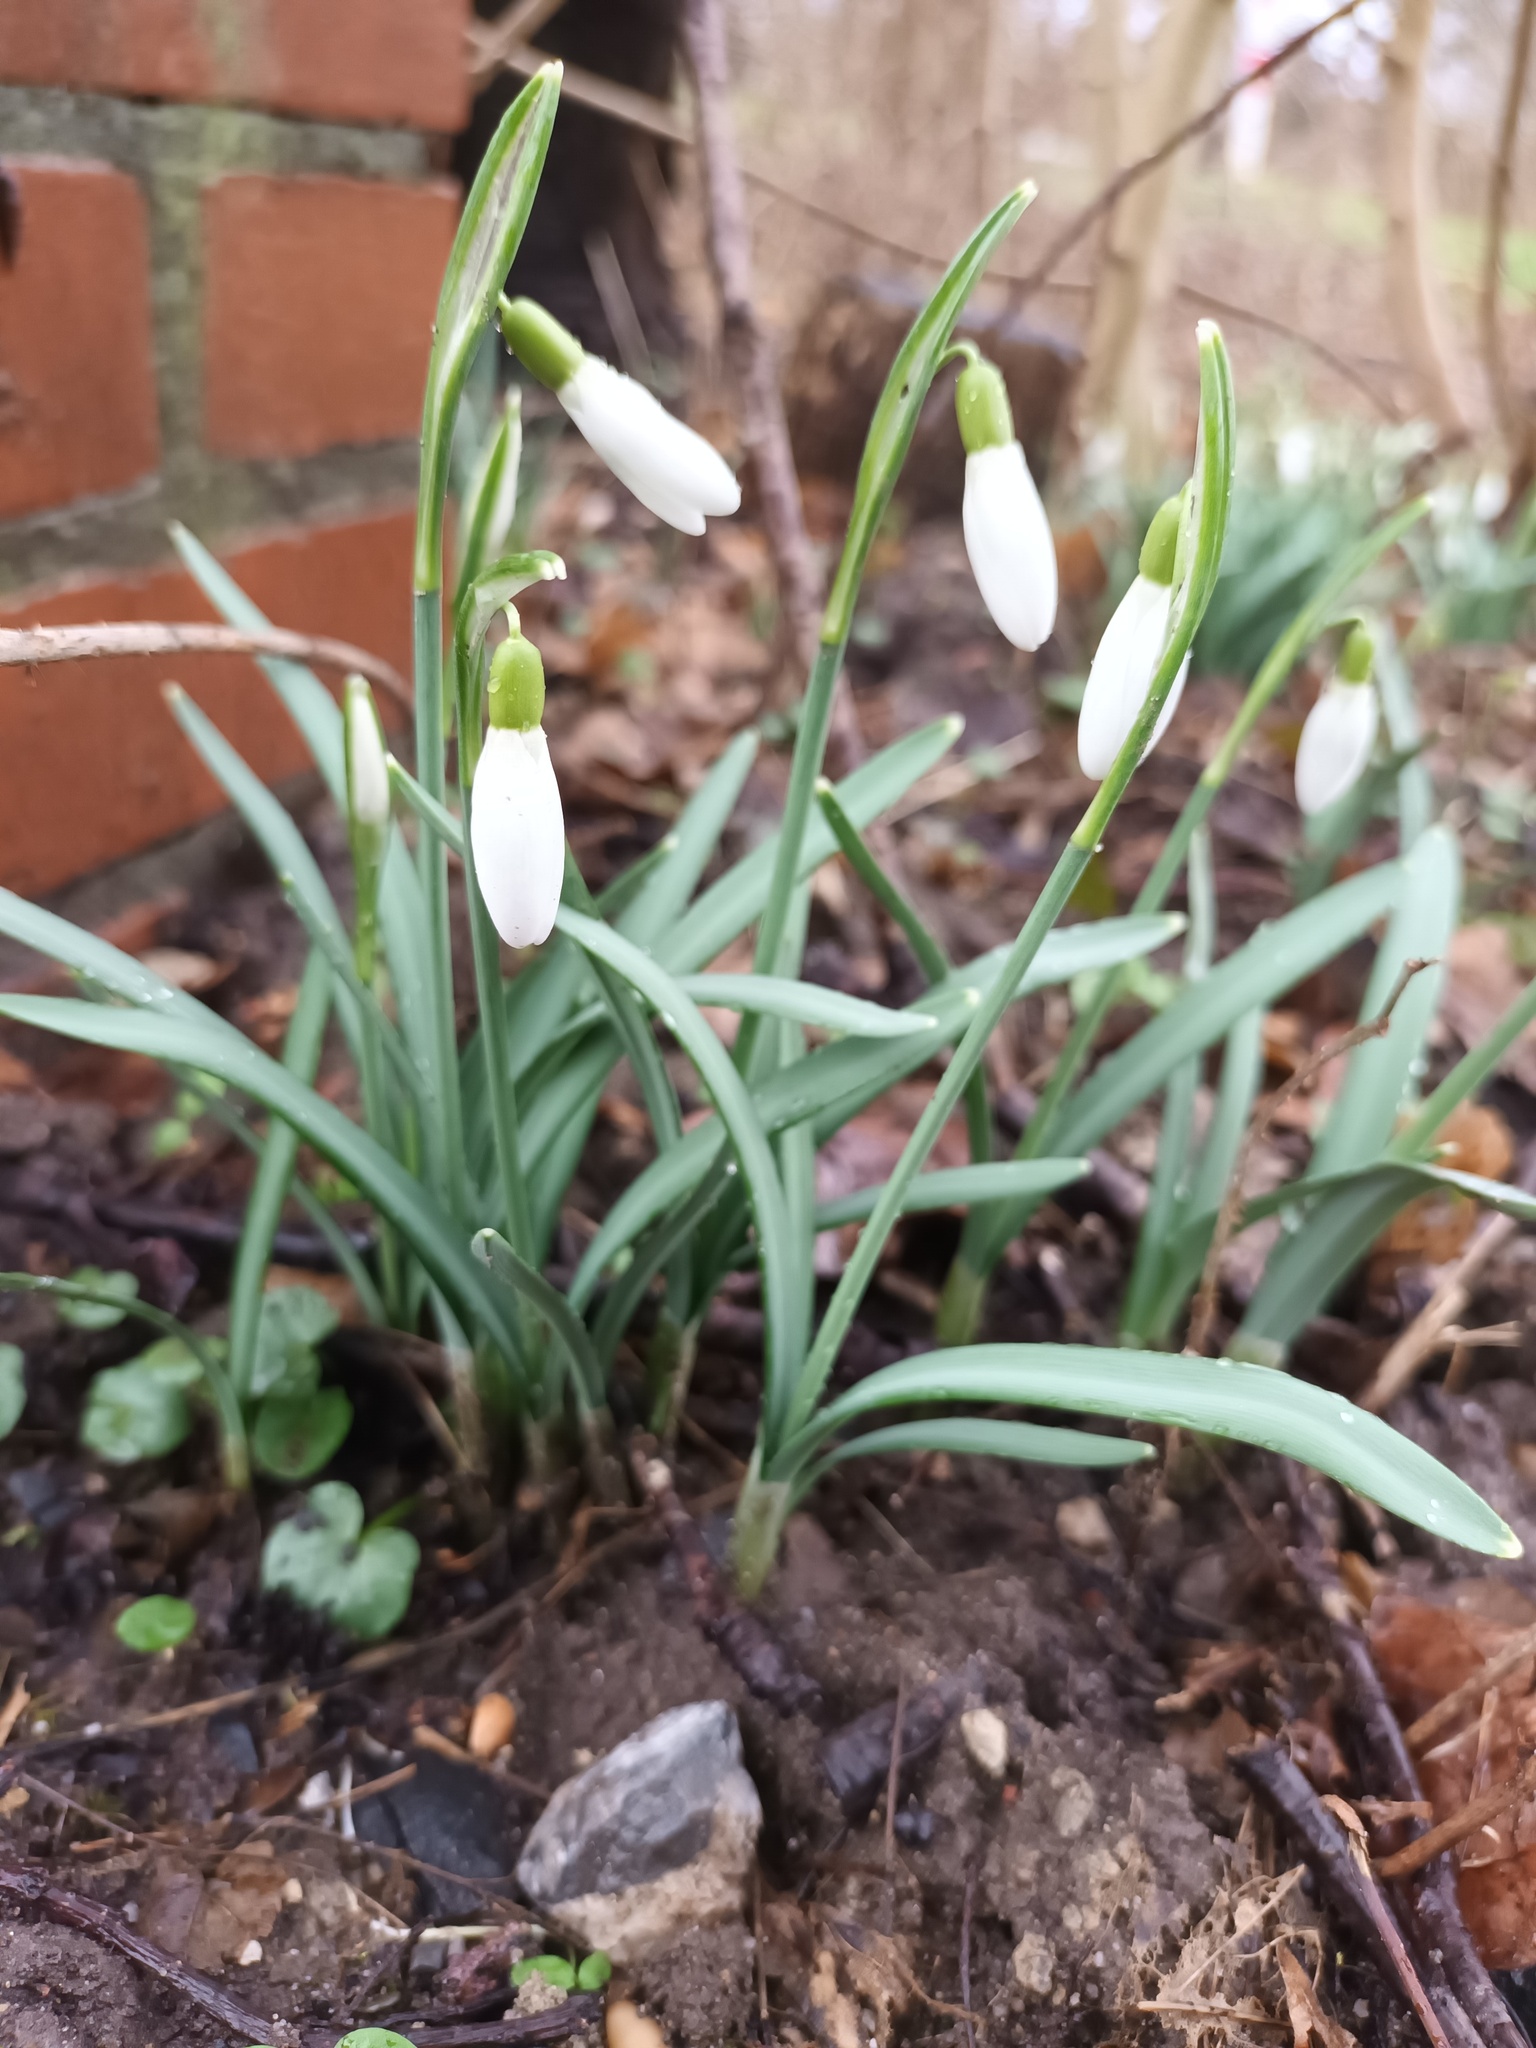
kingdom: Plantae
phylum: Tracheophyta
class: Liliopsida
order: Asparagales
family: Amaryllidaceae
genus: Galanthus
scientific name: Galanthus nivalis
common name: Snowdrop
